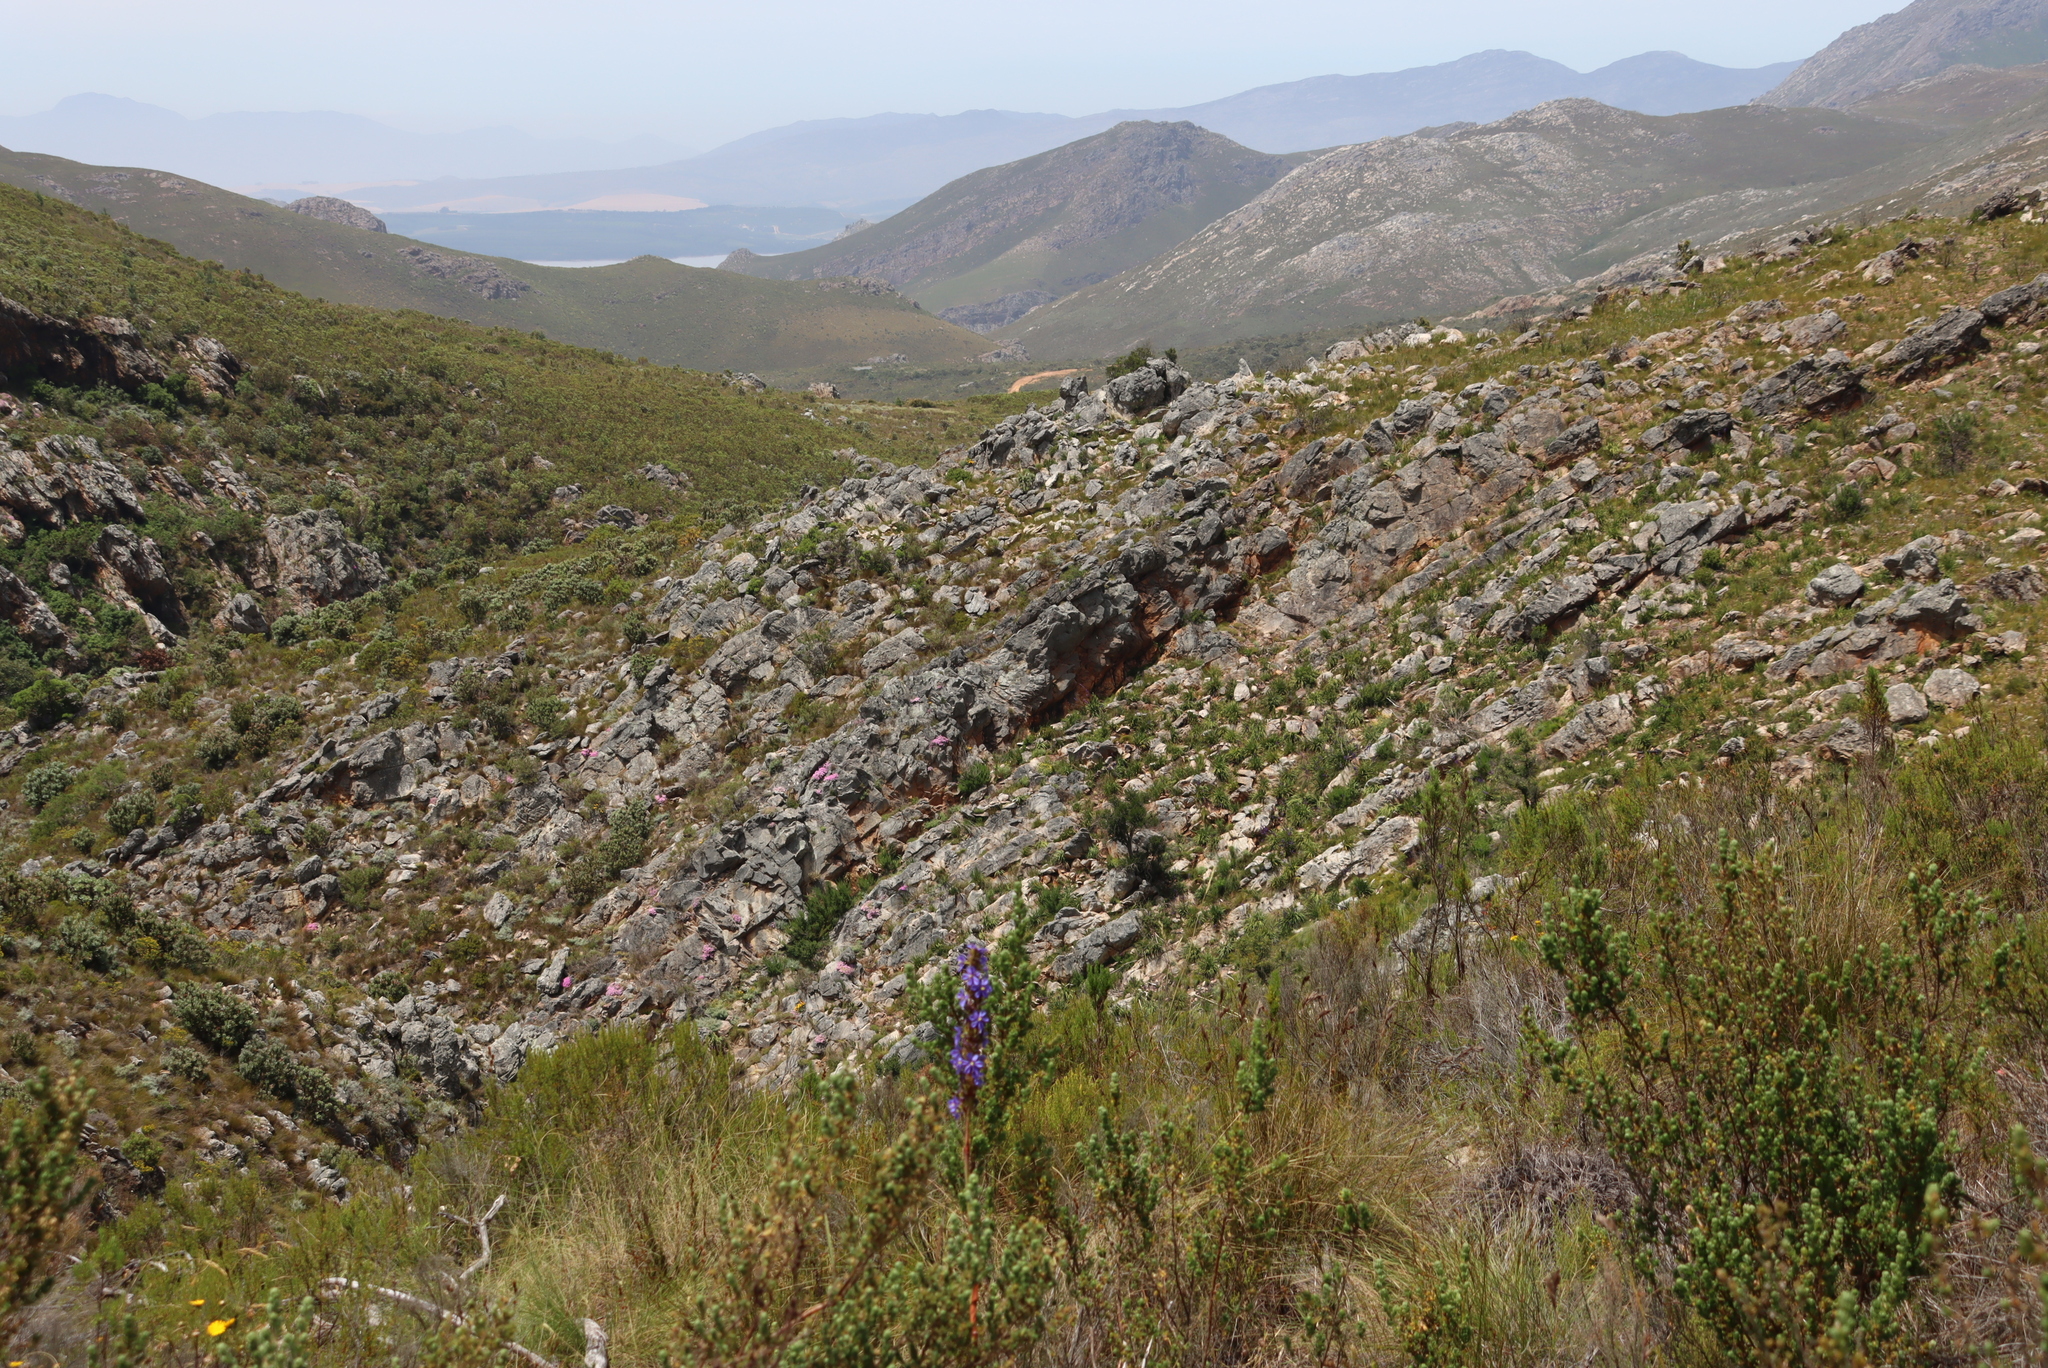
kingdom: Plantae
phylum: Tracheophyta
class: Magnoliopsida
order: Caryophyllales
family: Aizoaceae
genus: Oscularia
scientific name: Oscularia deltoides
